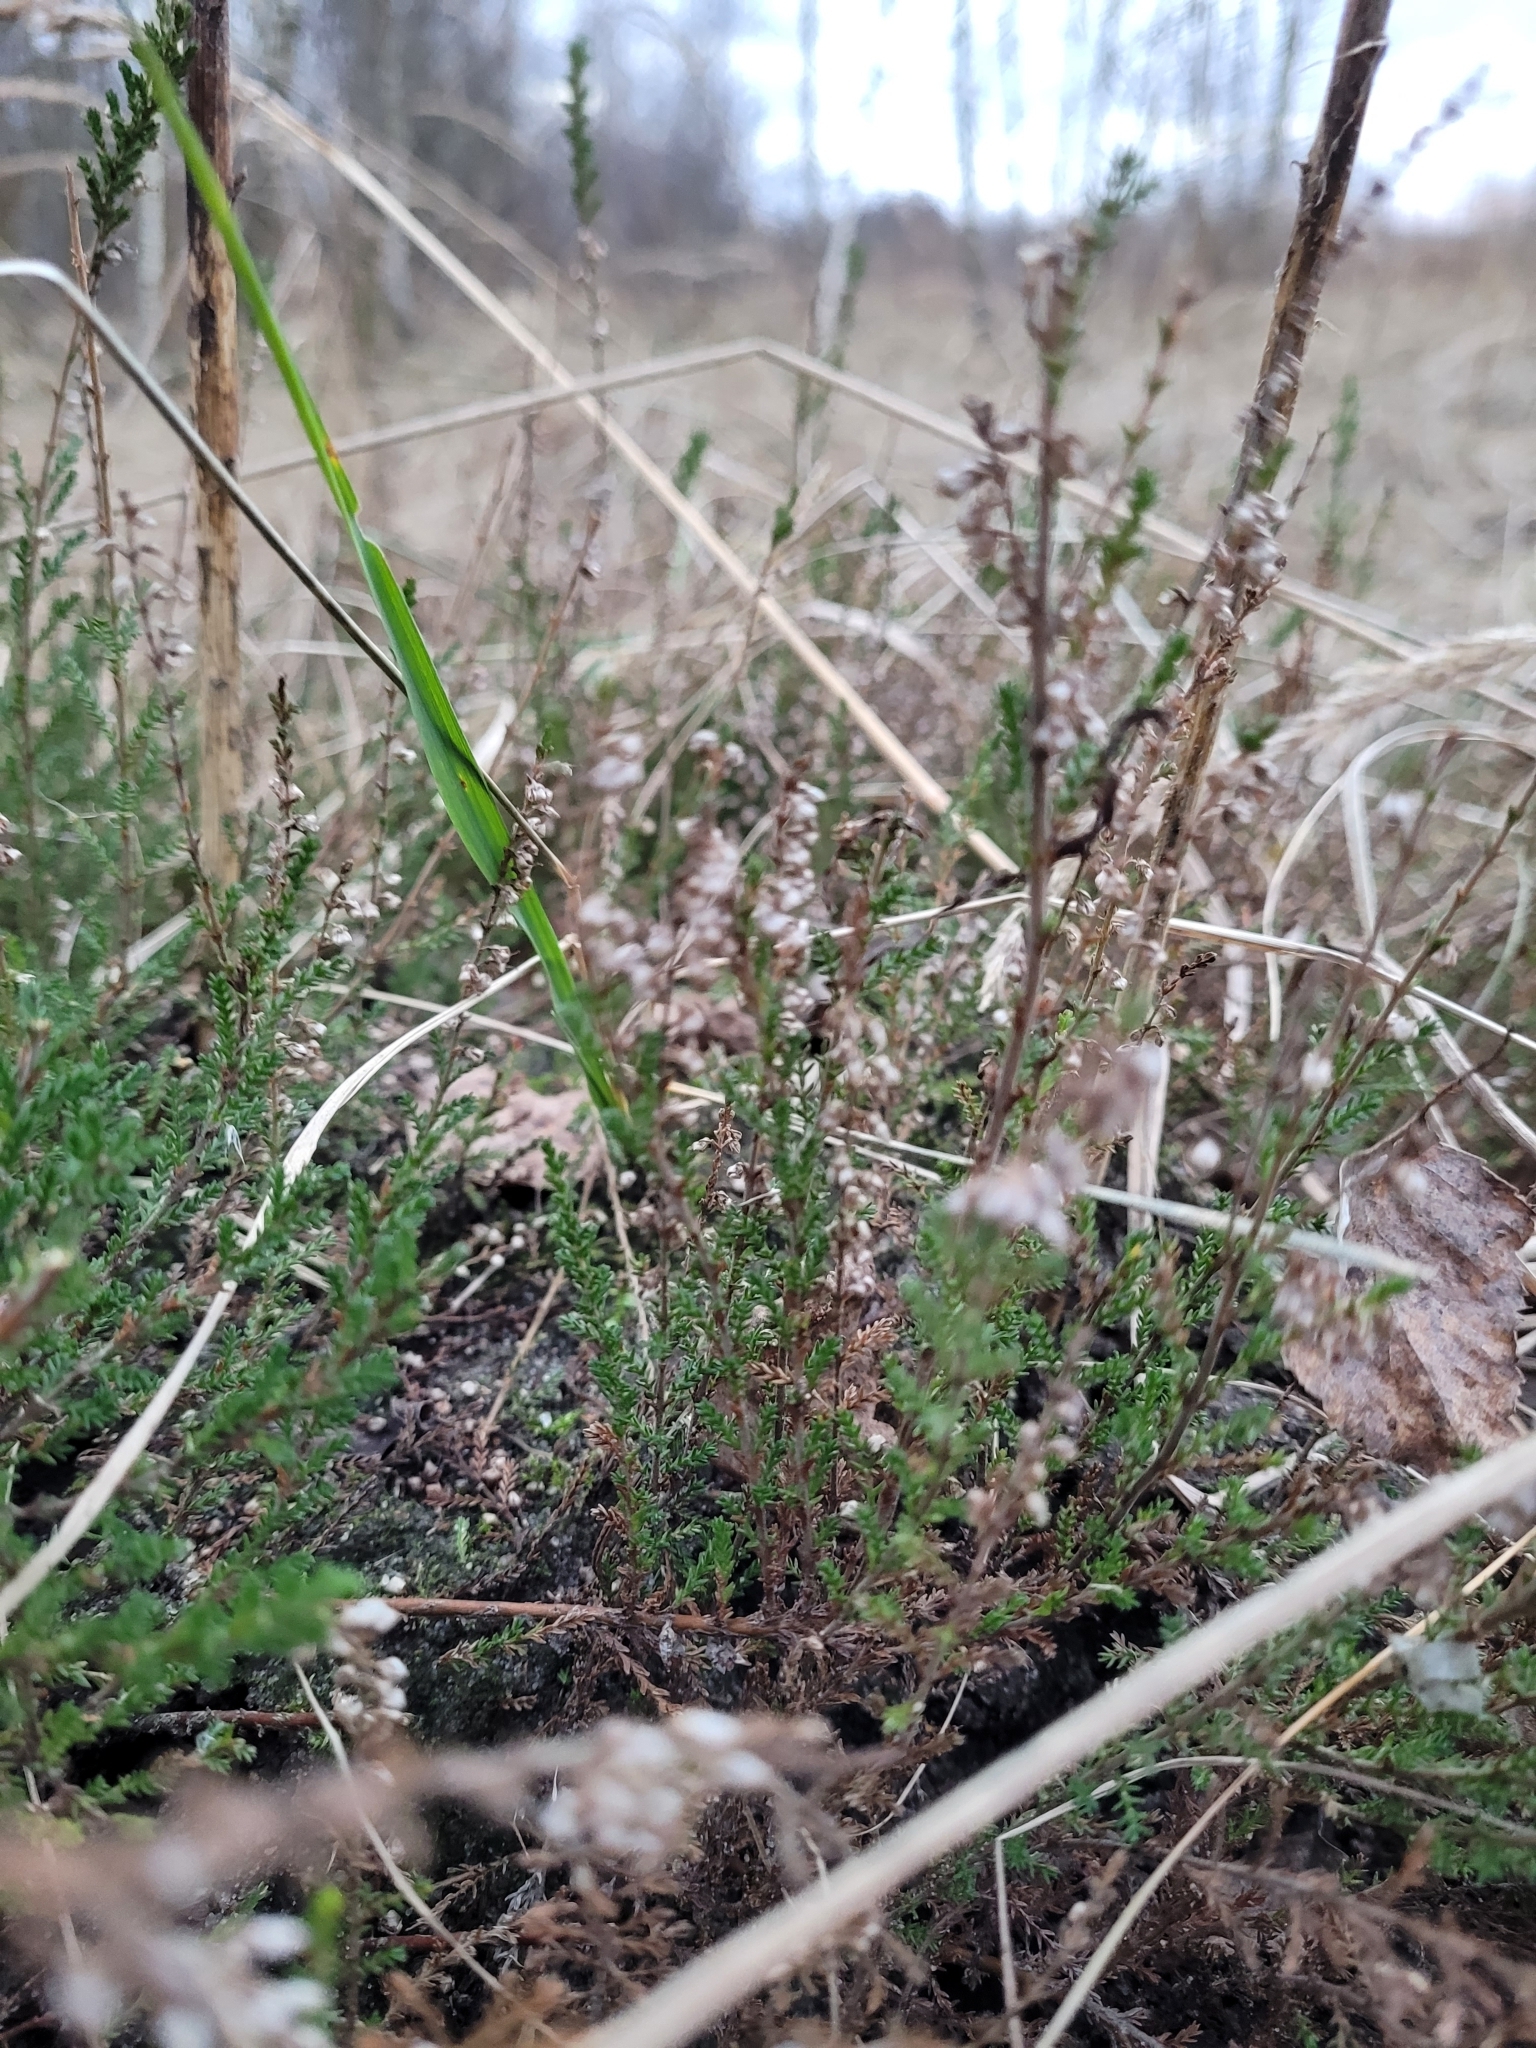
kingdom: Plantae
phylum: Tracheophyta
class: Magnoliopsida
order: Ericales
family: Ericaceae
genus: Calluna
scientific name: Calluna vulgaris
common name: Heather
